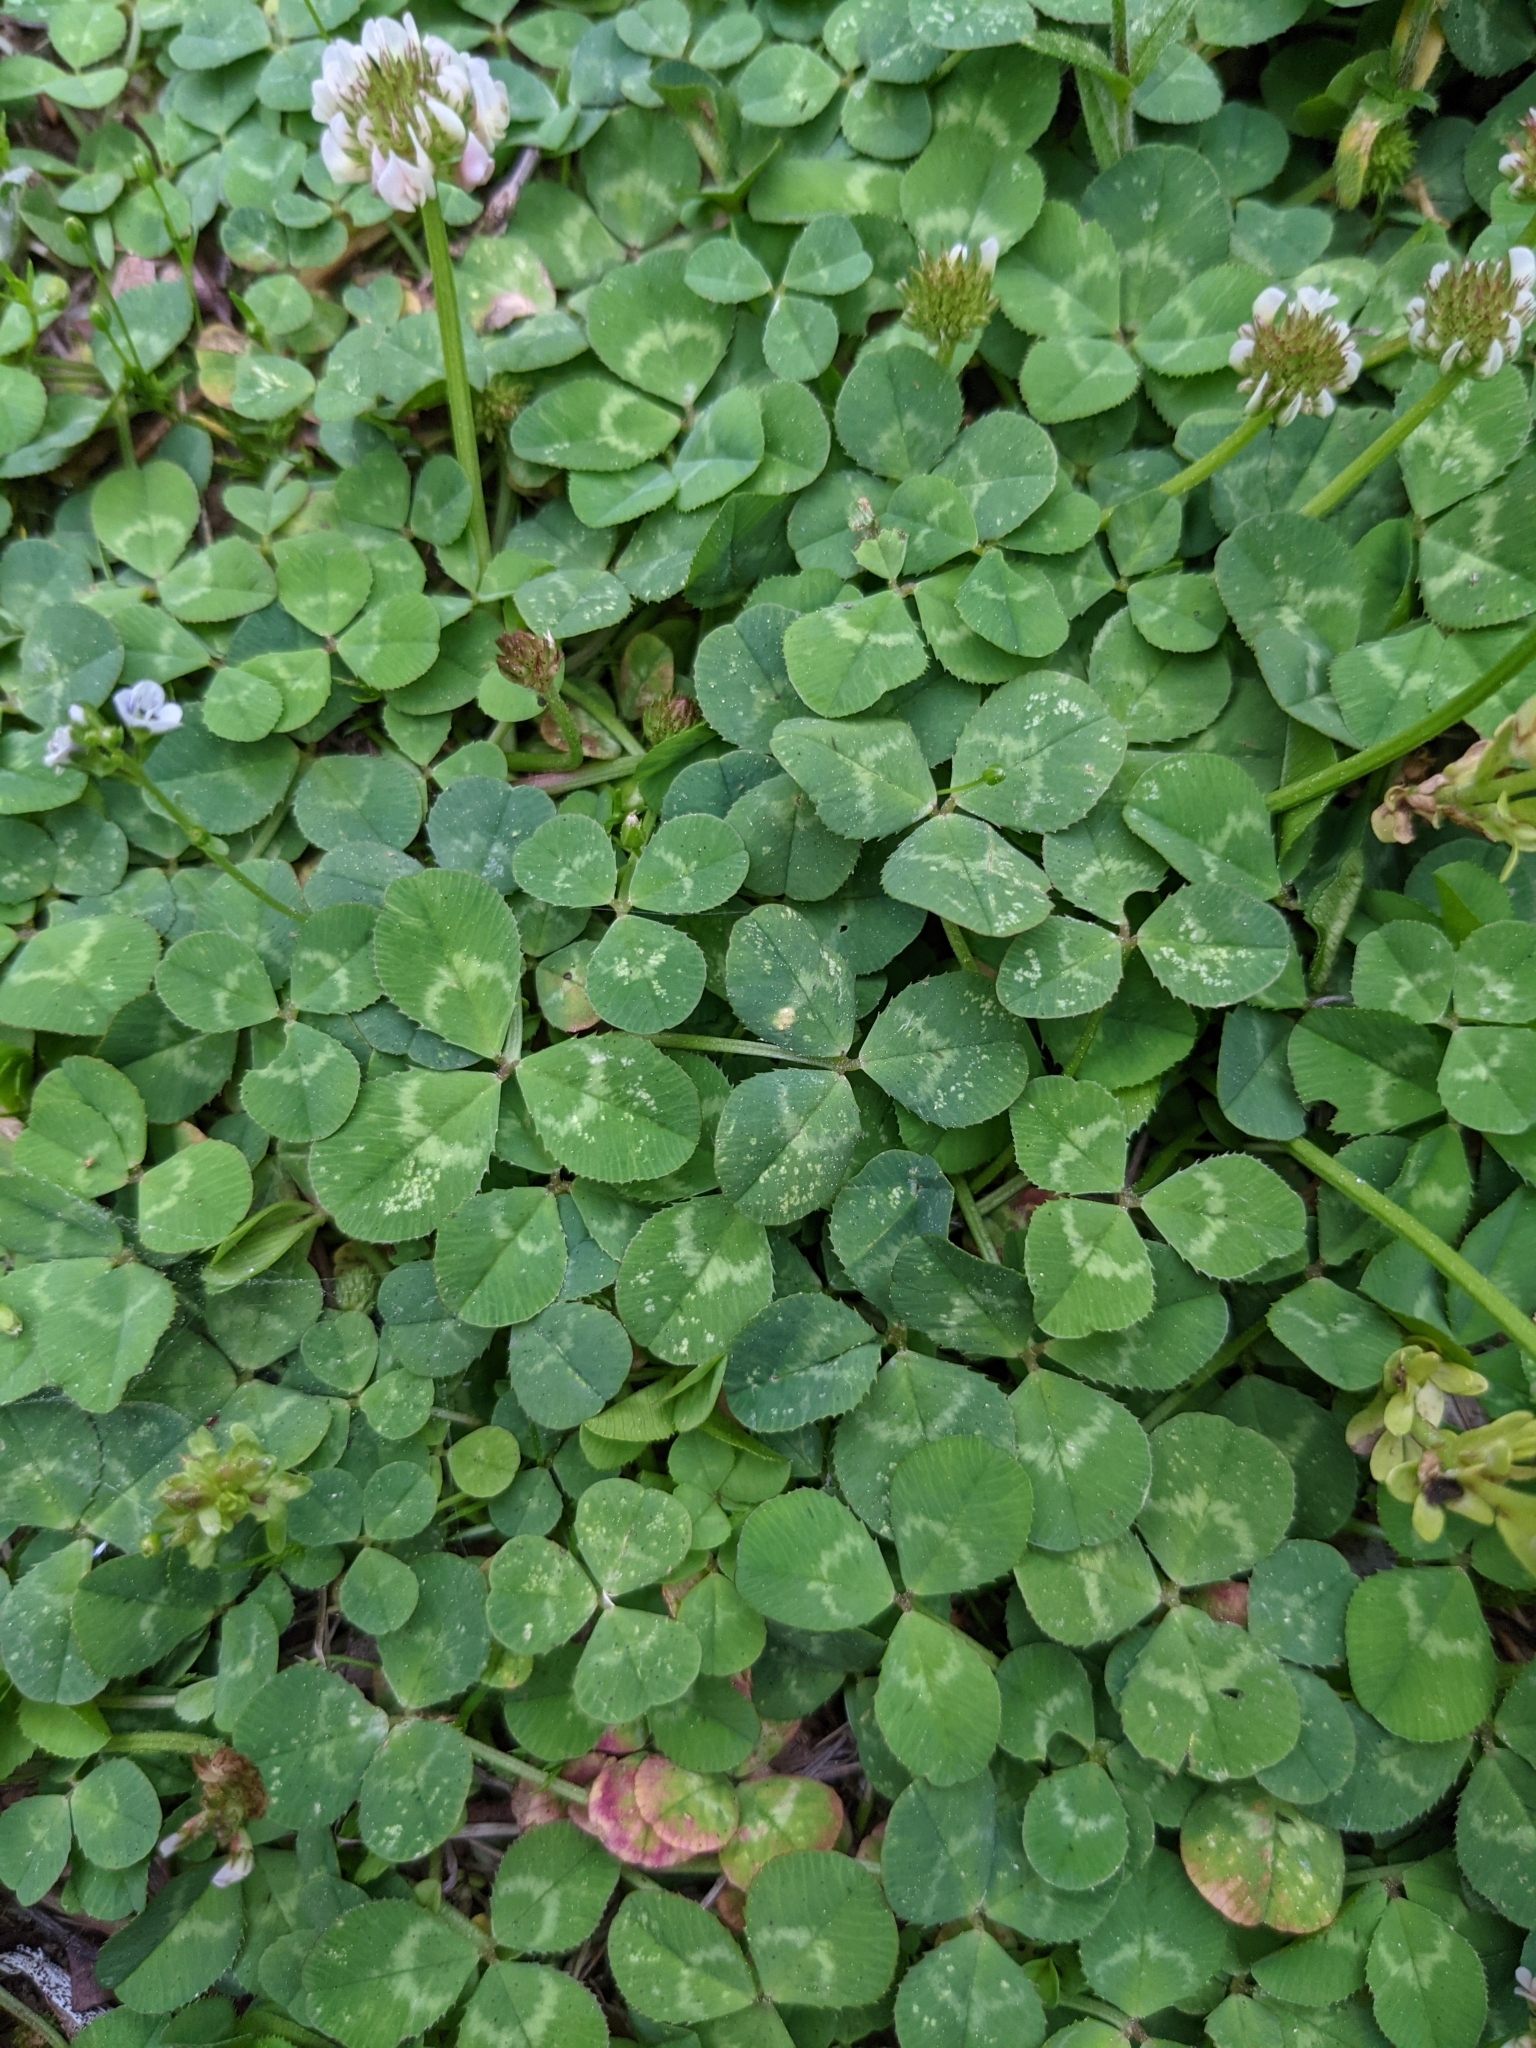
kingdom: Plantae
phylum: Tracheophyta
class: Magnoliopsida
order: Fabales
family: Fabaceae
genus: Trifolium
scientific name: Trifolium repens
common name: White clover
